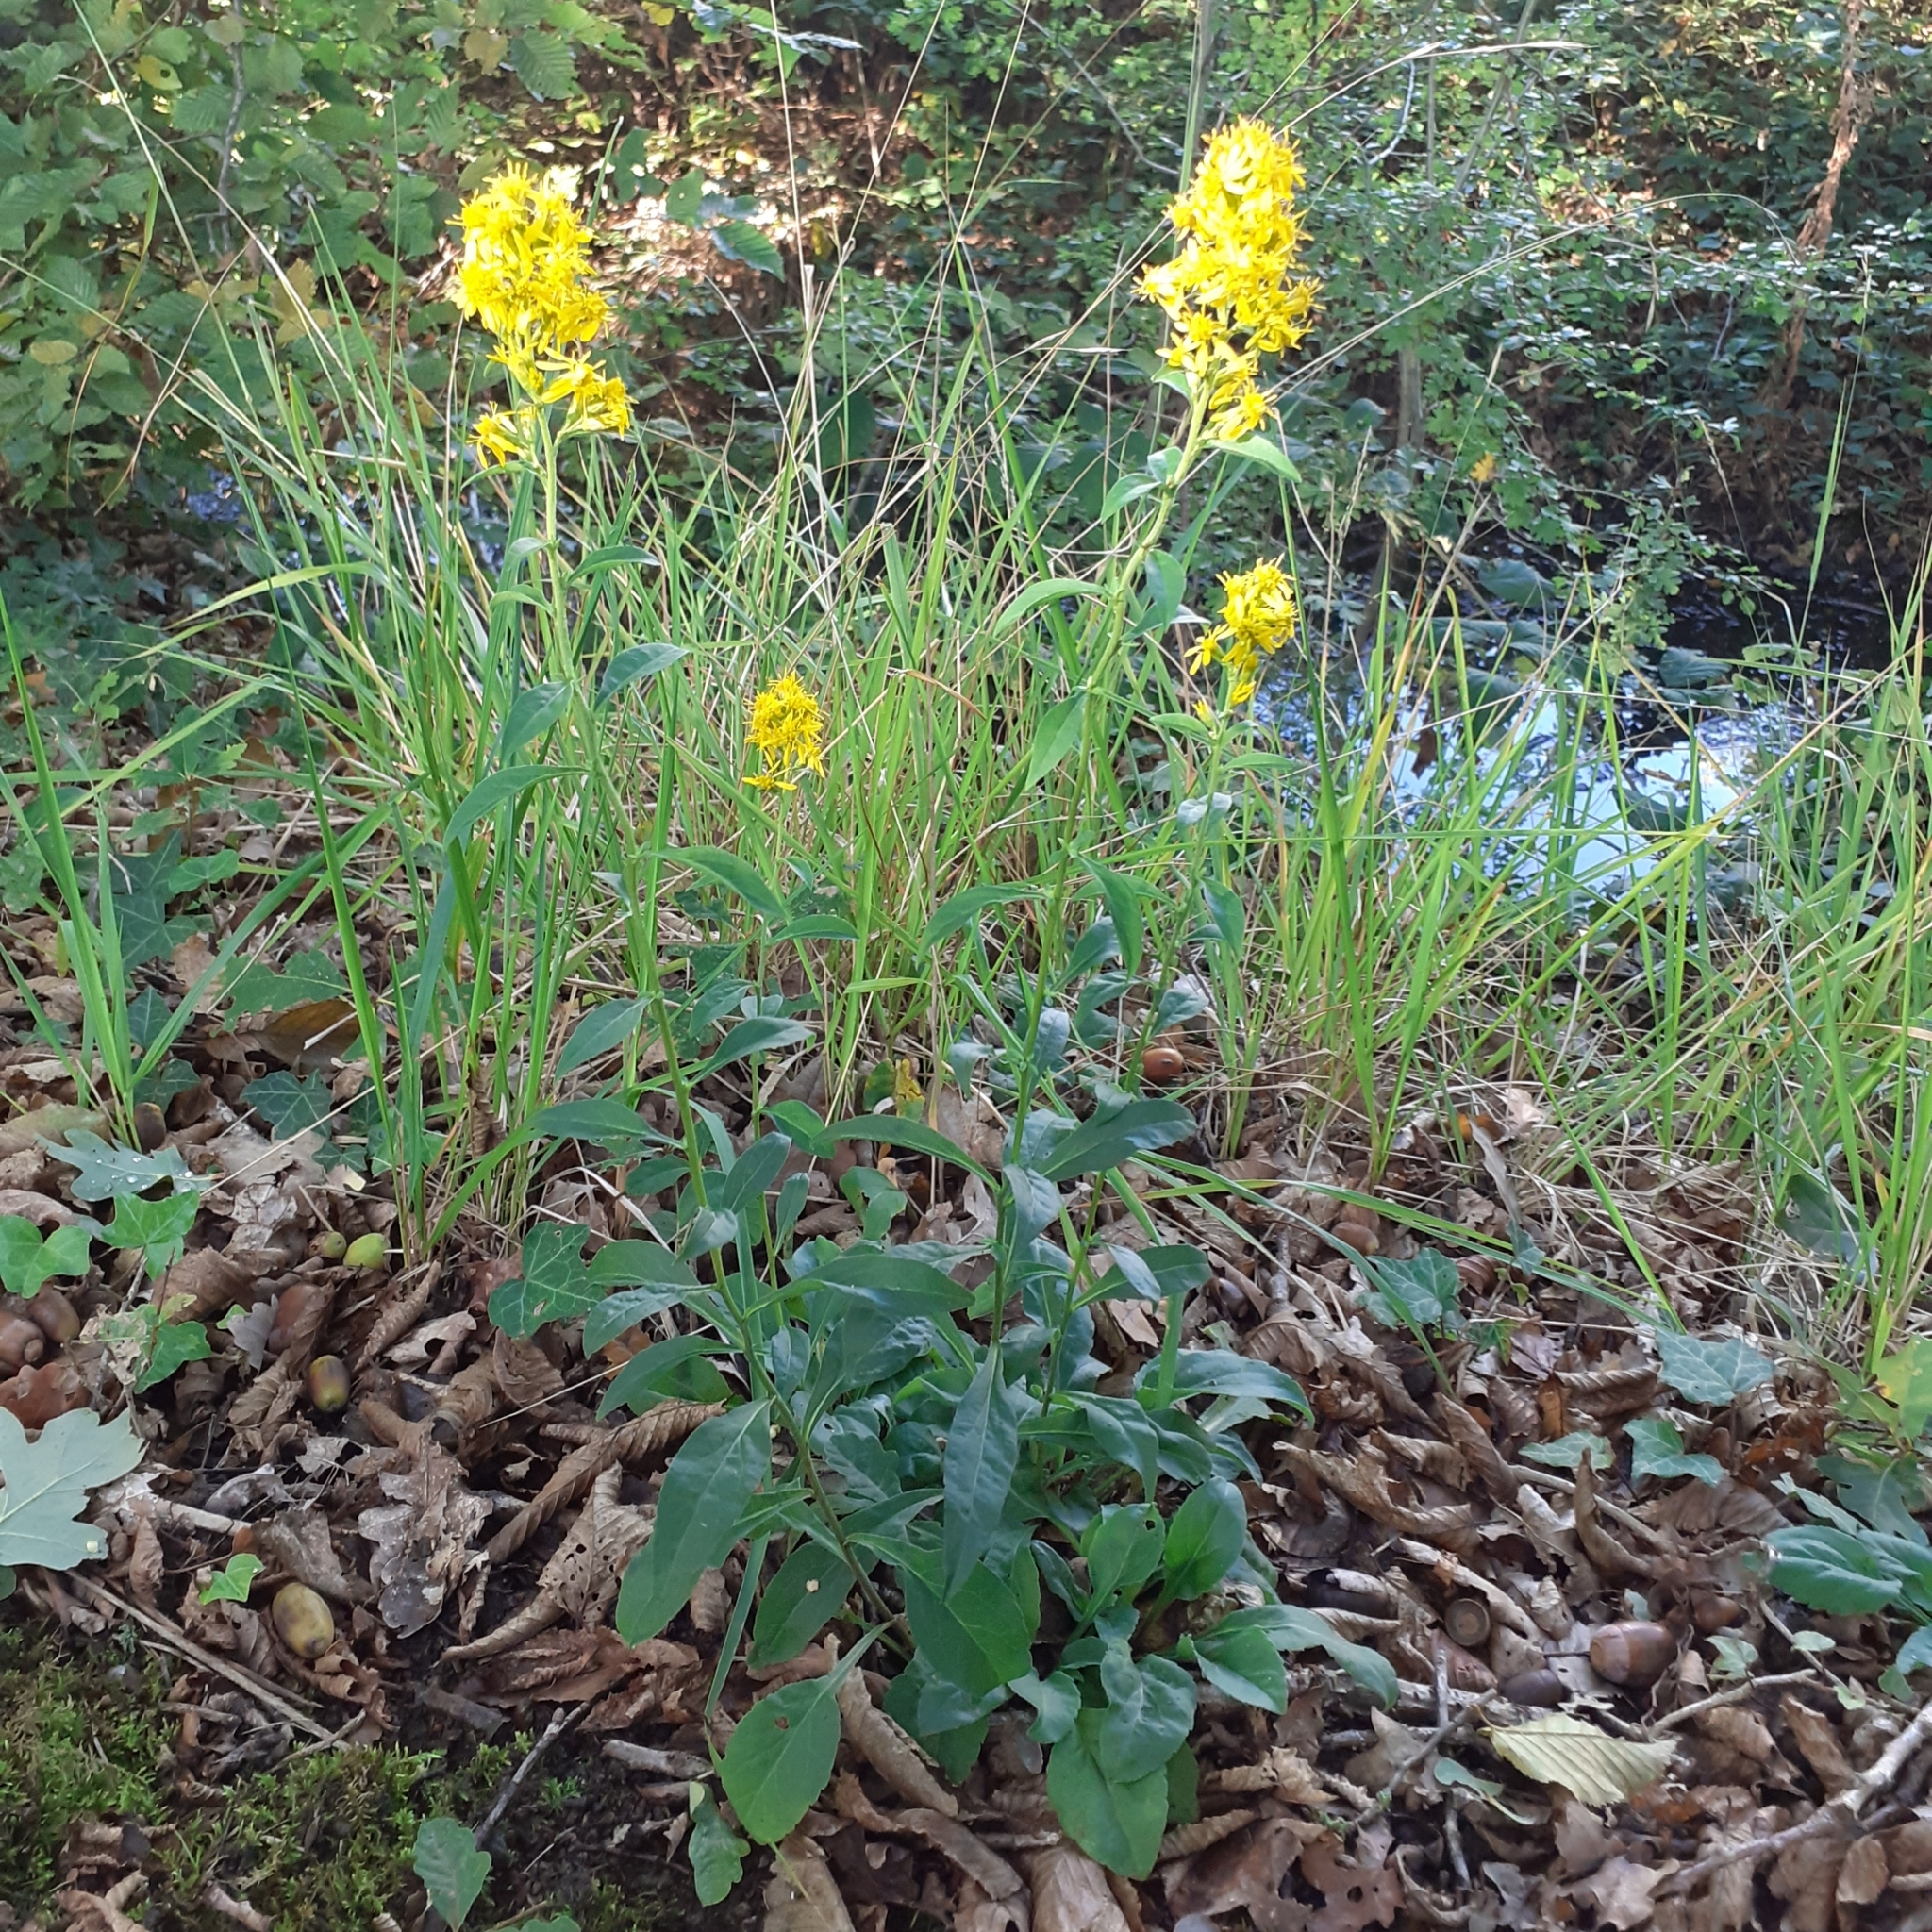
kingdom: Plantae
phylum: Tracheophyta
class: Magnoliopsida
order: Asterales
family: Asteraceae
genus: Solidago
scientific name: Solidago virgaurea
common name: Goldenrod
